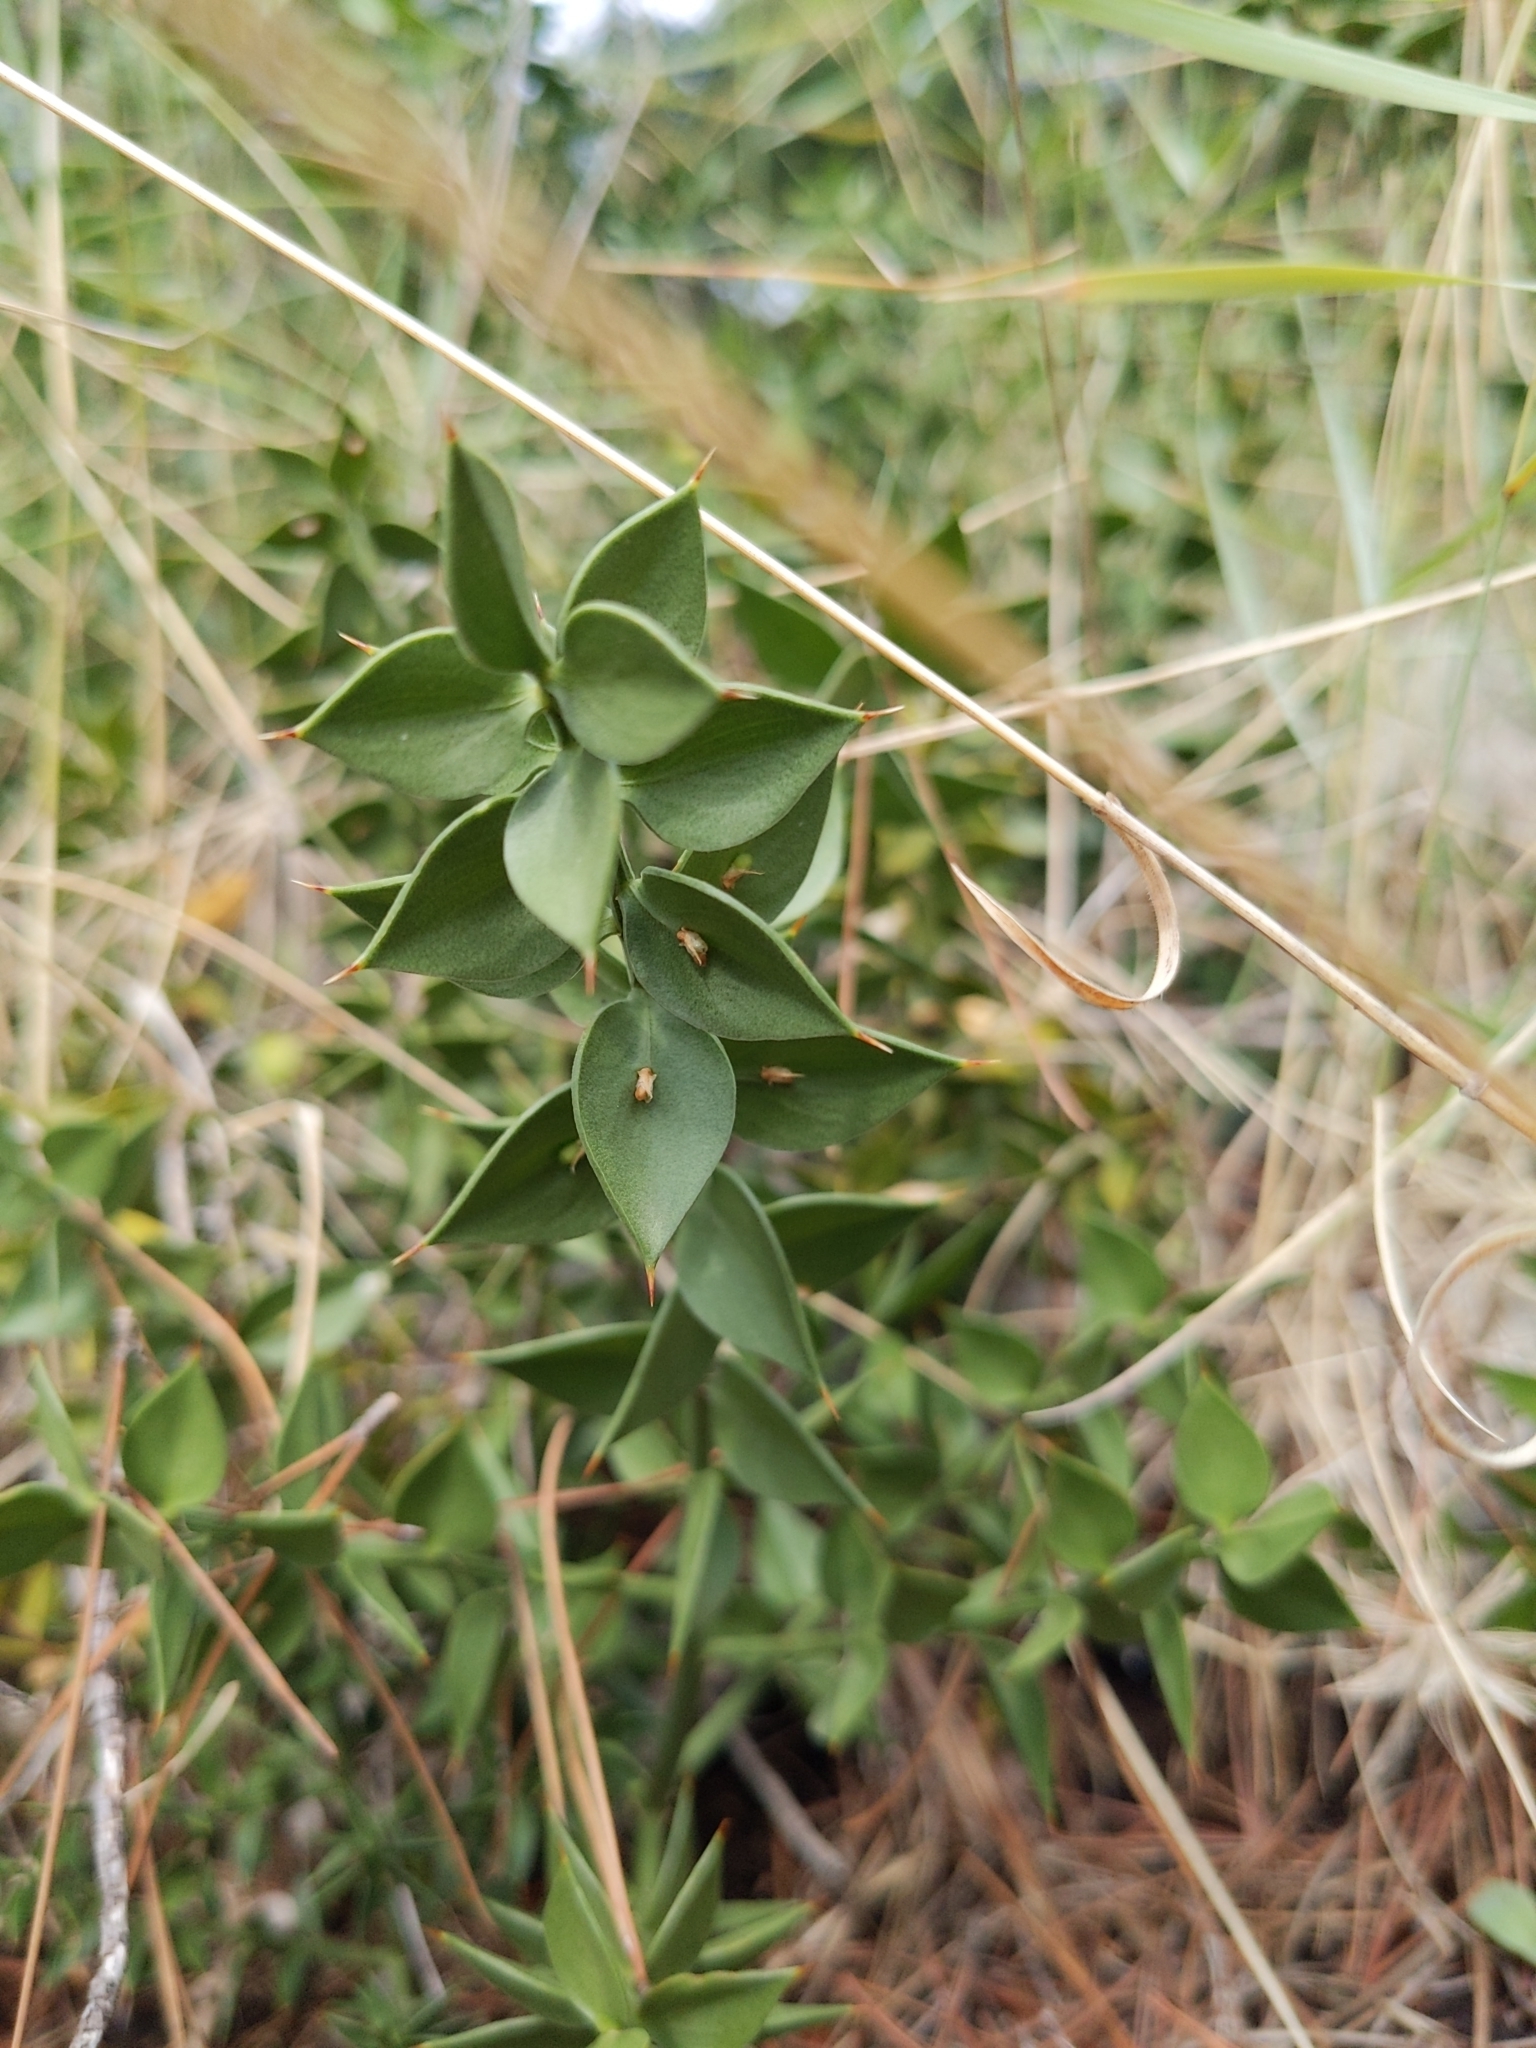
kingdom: Plantae
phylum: Tracheophyta
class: Liliopsida
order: Asparagales
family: Asparagaceae
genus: Ruscus
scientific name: Ruscus aculeatus
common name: Butcher's-broom
